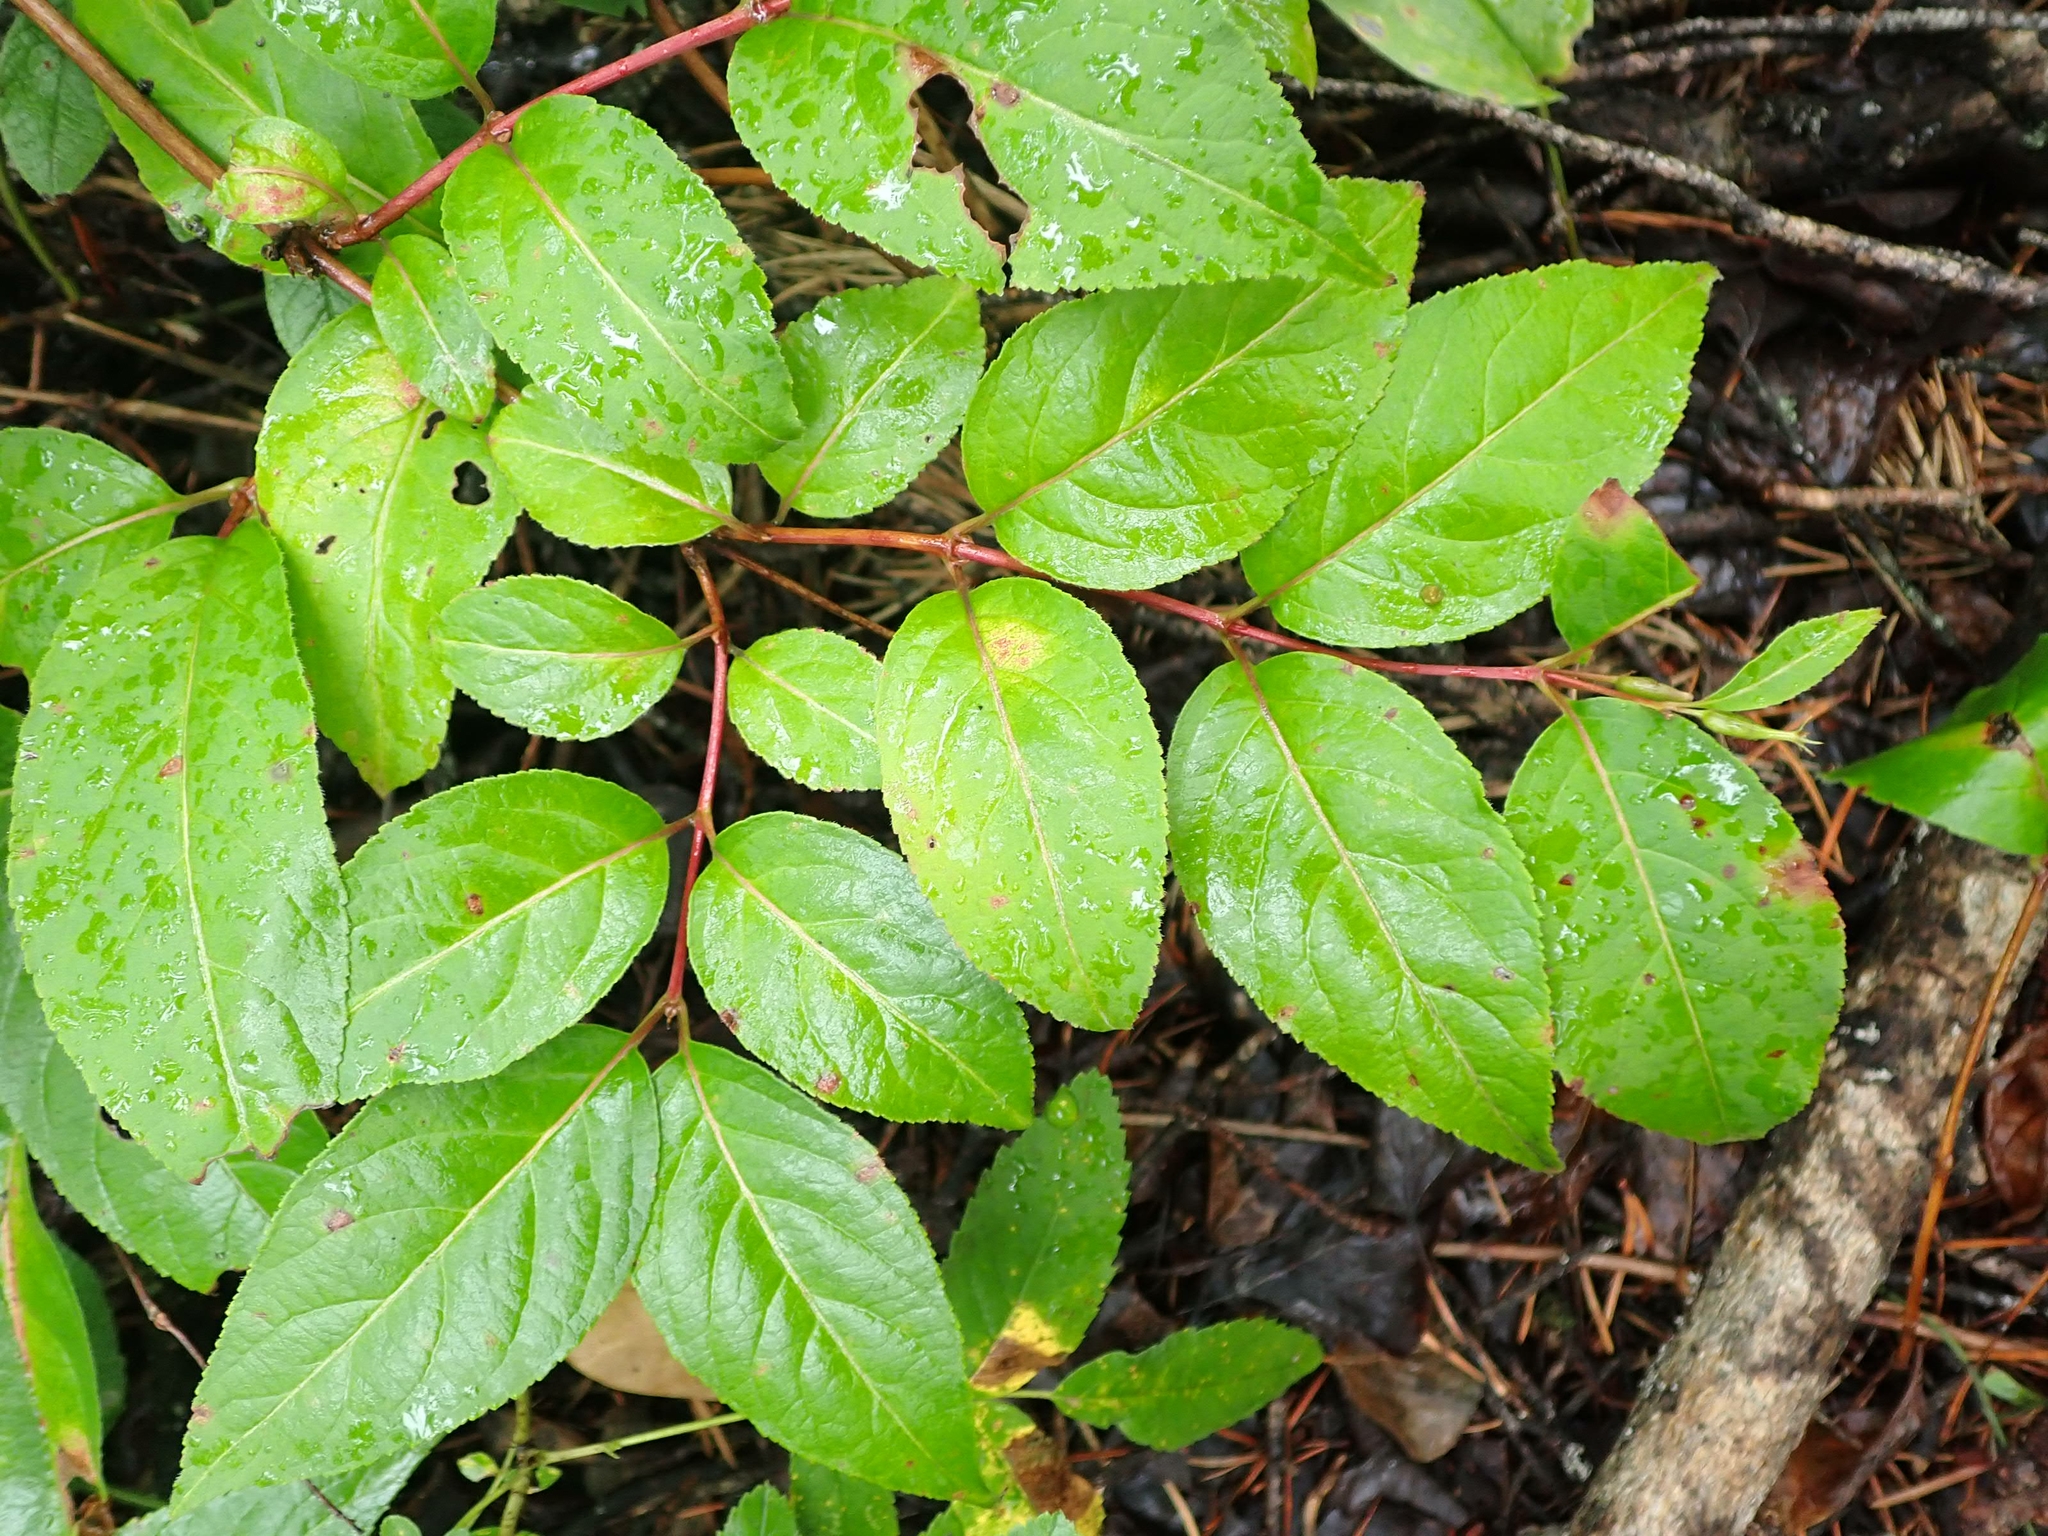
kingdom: Plantae
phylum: Tracheophyta
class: Magnoliopsida
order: Dipsacales
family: Caprifoliaceae
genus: Diervilla
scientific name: Diervilla lonicera
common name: Bush-honeysuckle
